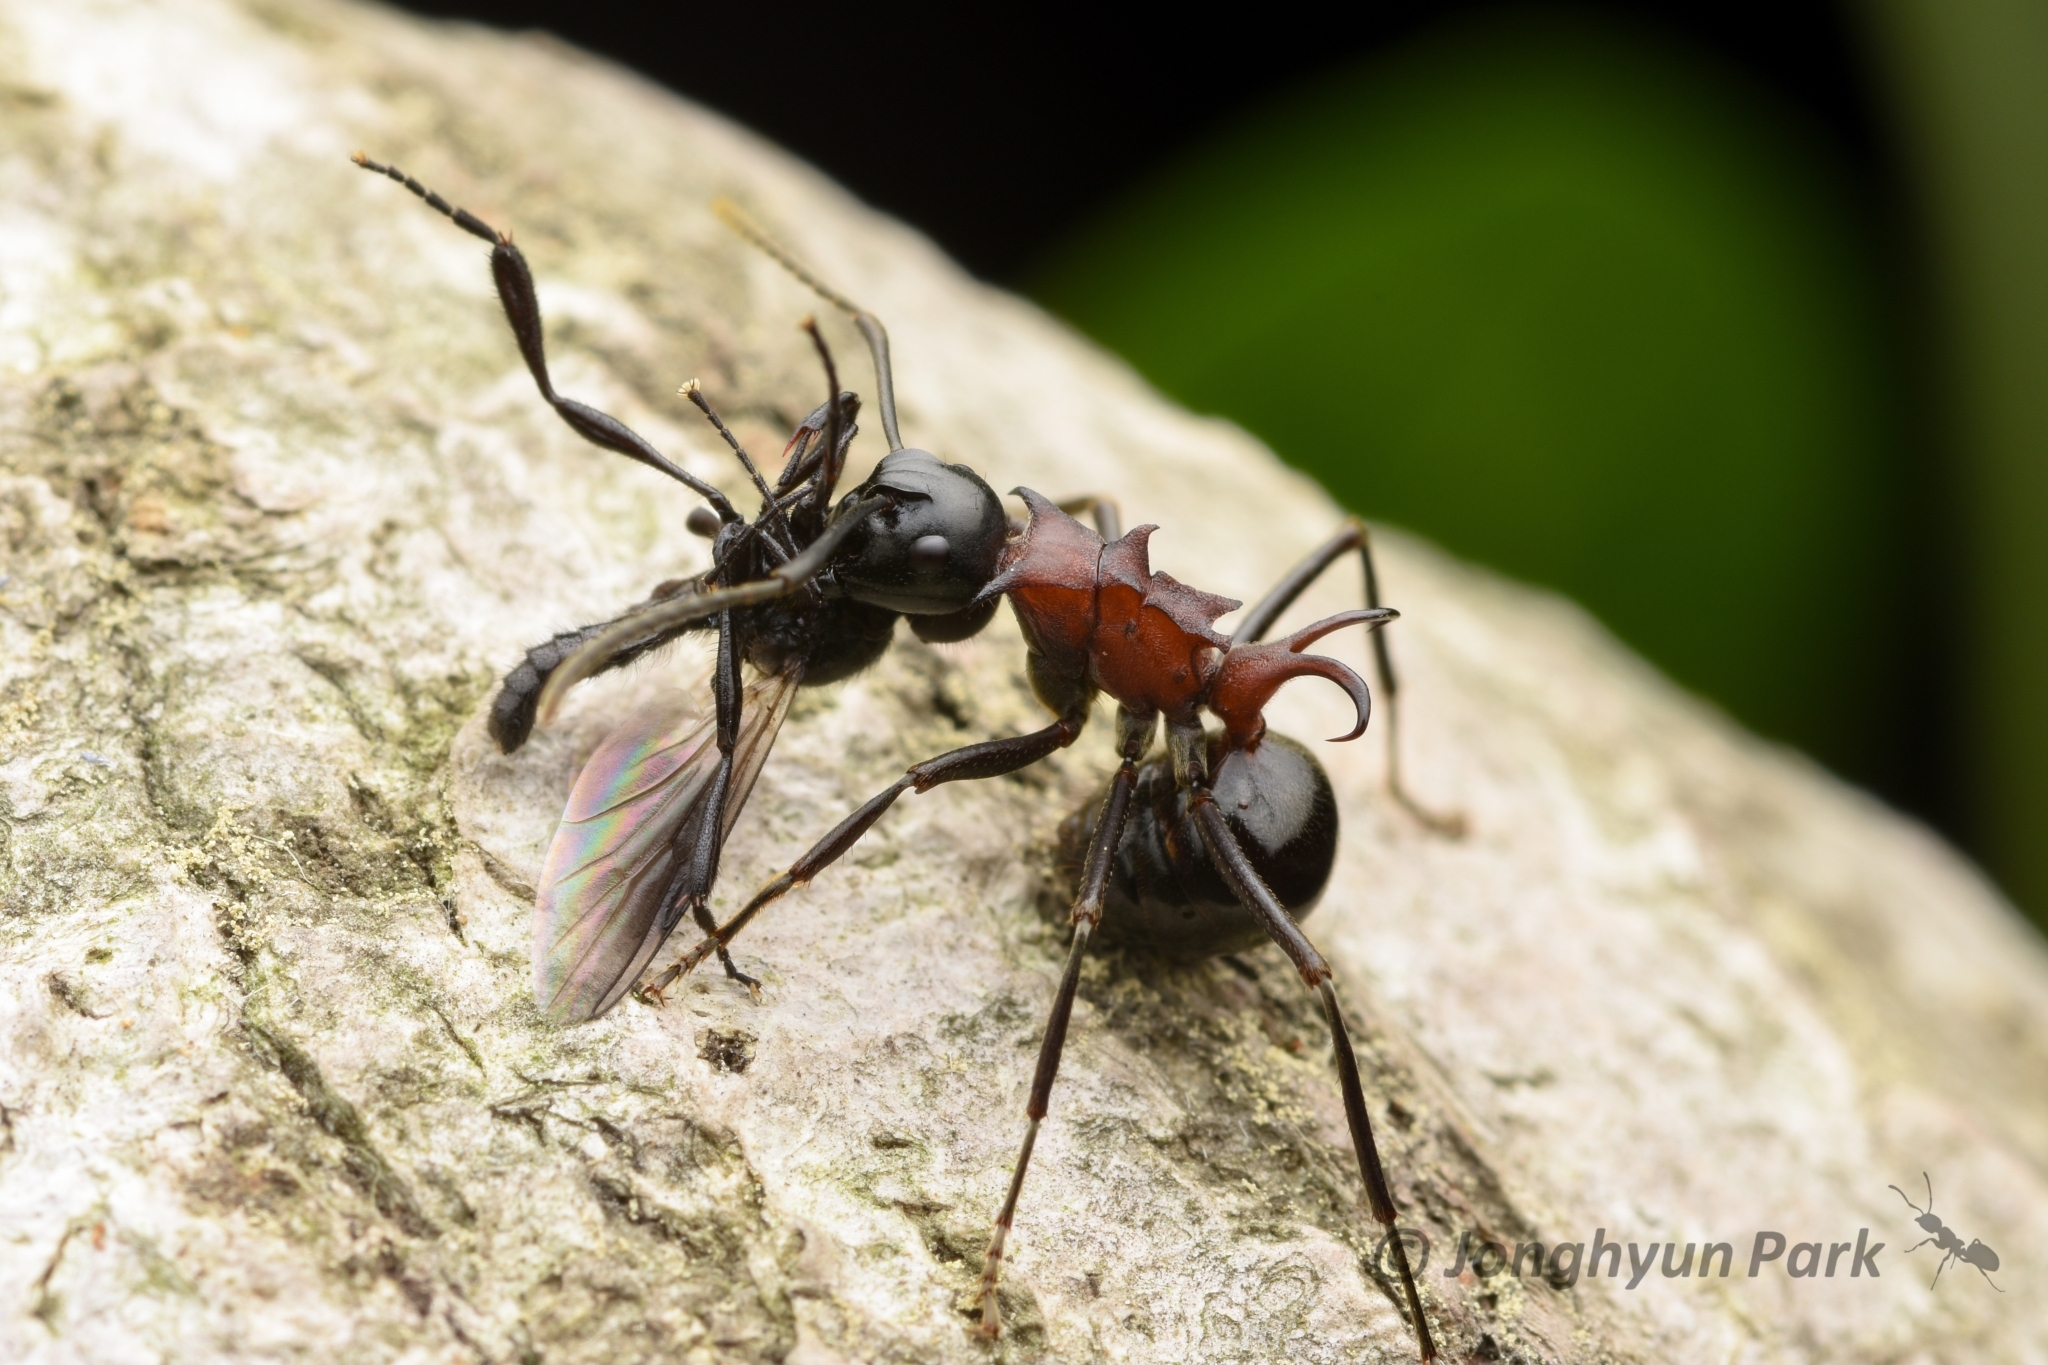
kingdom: Animalia
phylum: Arthropoda
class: Insecta
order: Hymenoptera
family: Formicidae
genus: Polyrhachis
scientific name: Polyrhachis lamellidens
